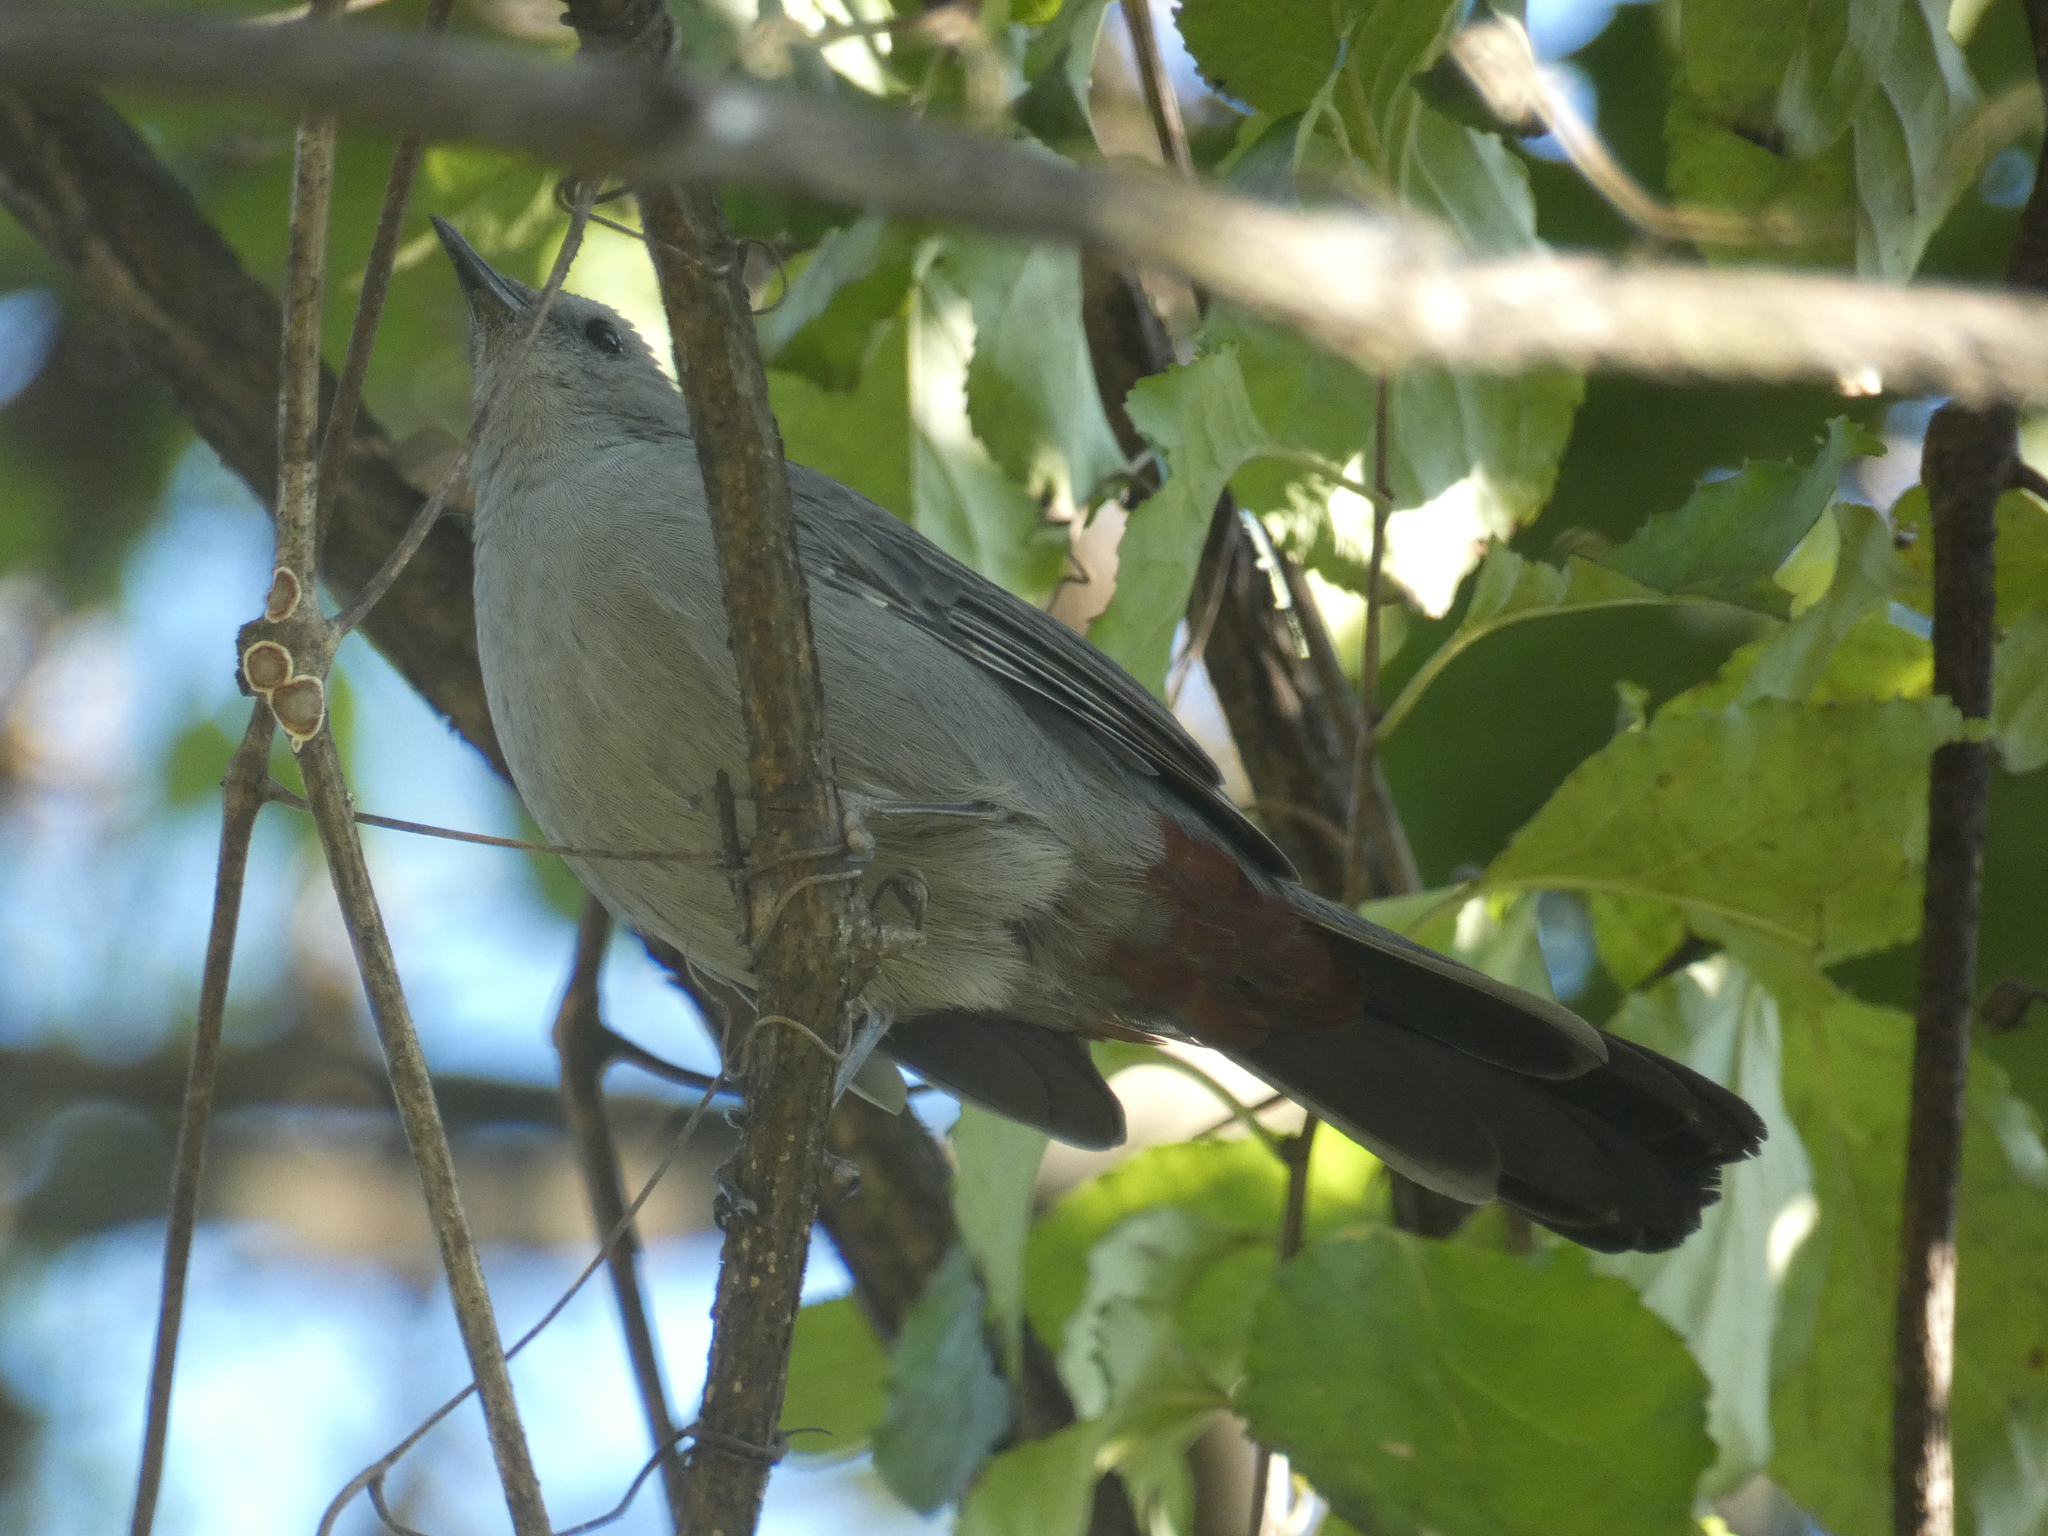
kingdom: Animalia
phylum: Chordata
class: Aves
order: Passeriformes
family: Mimidae
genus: Dumetella
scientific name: Dumetella carolinensis
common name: Gray catbird
